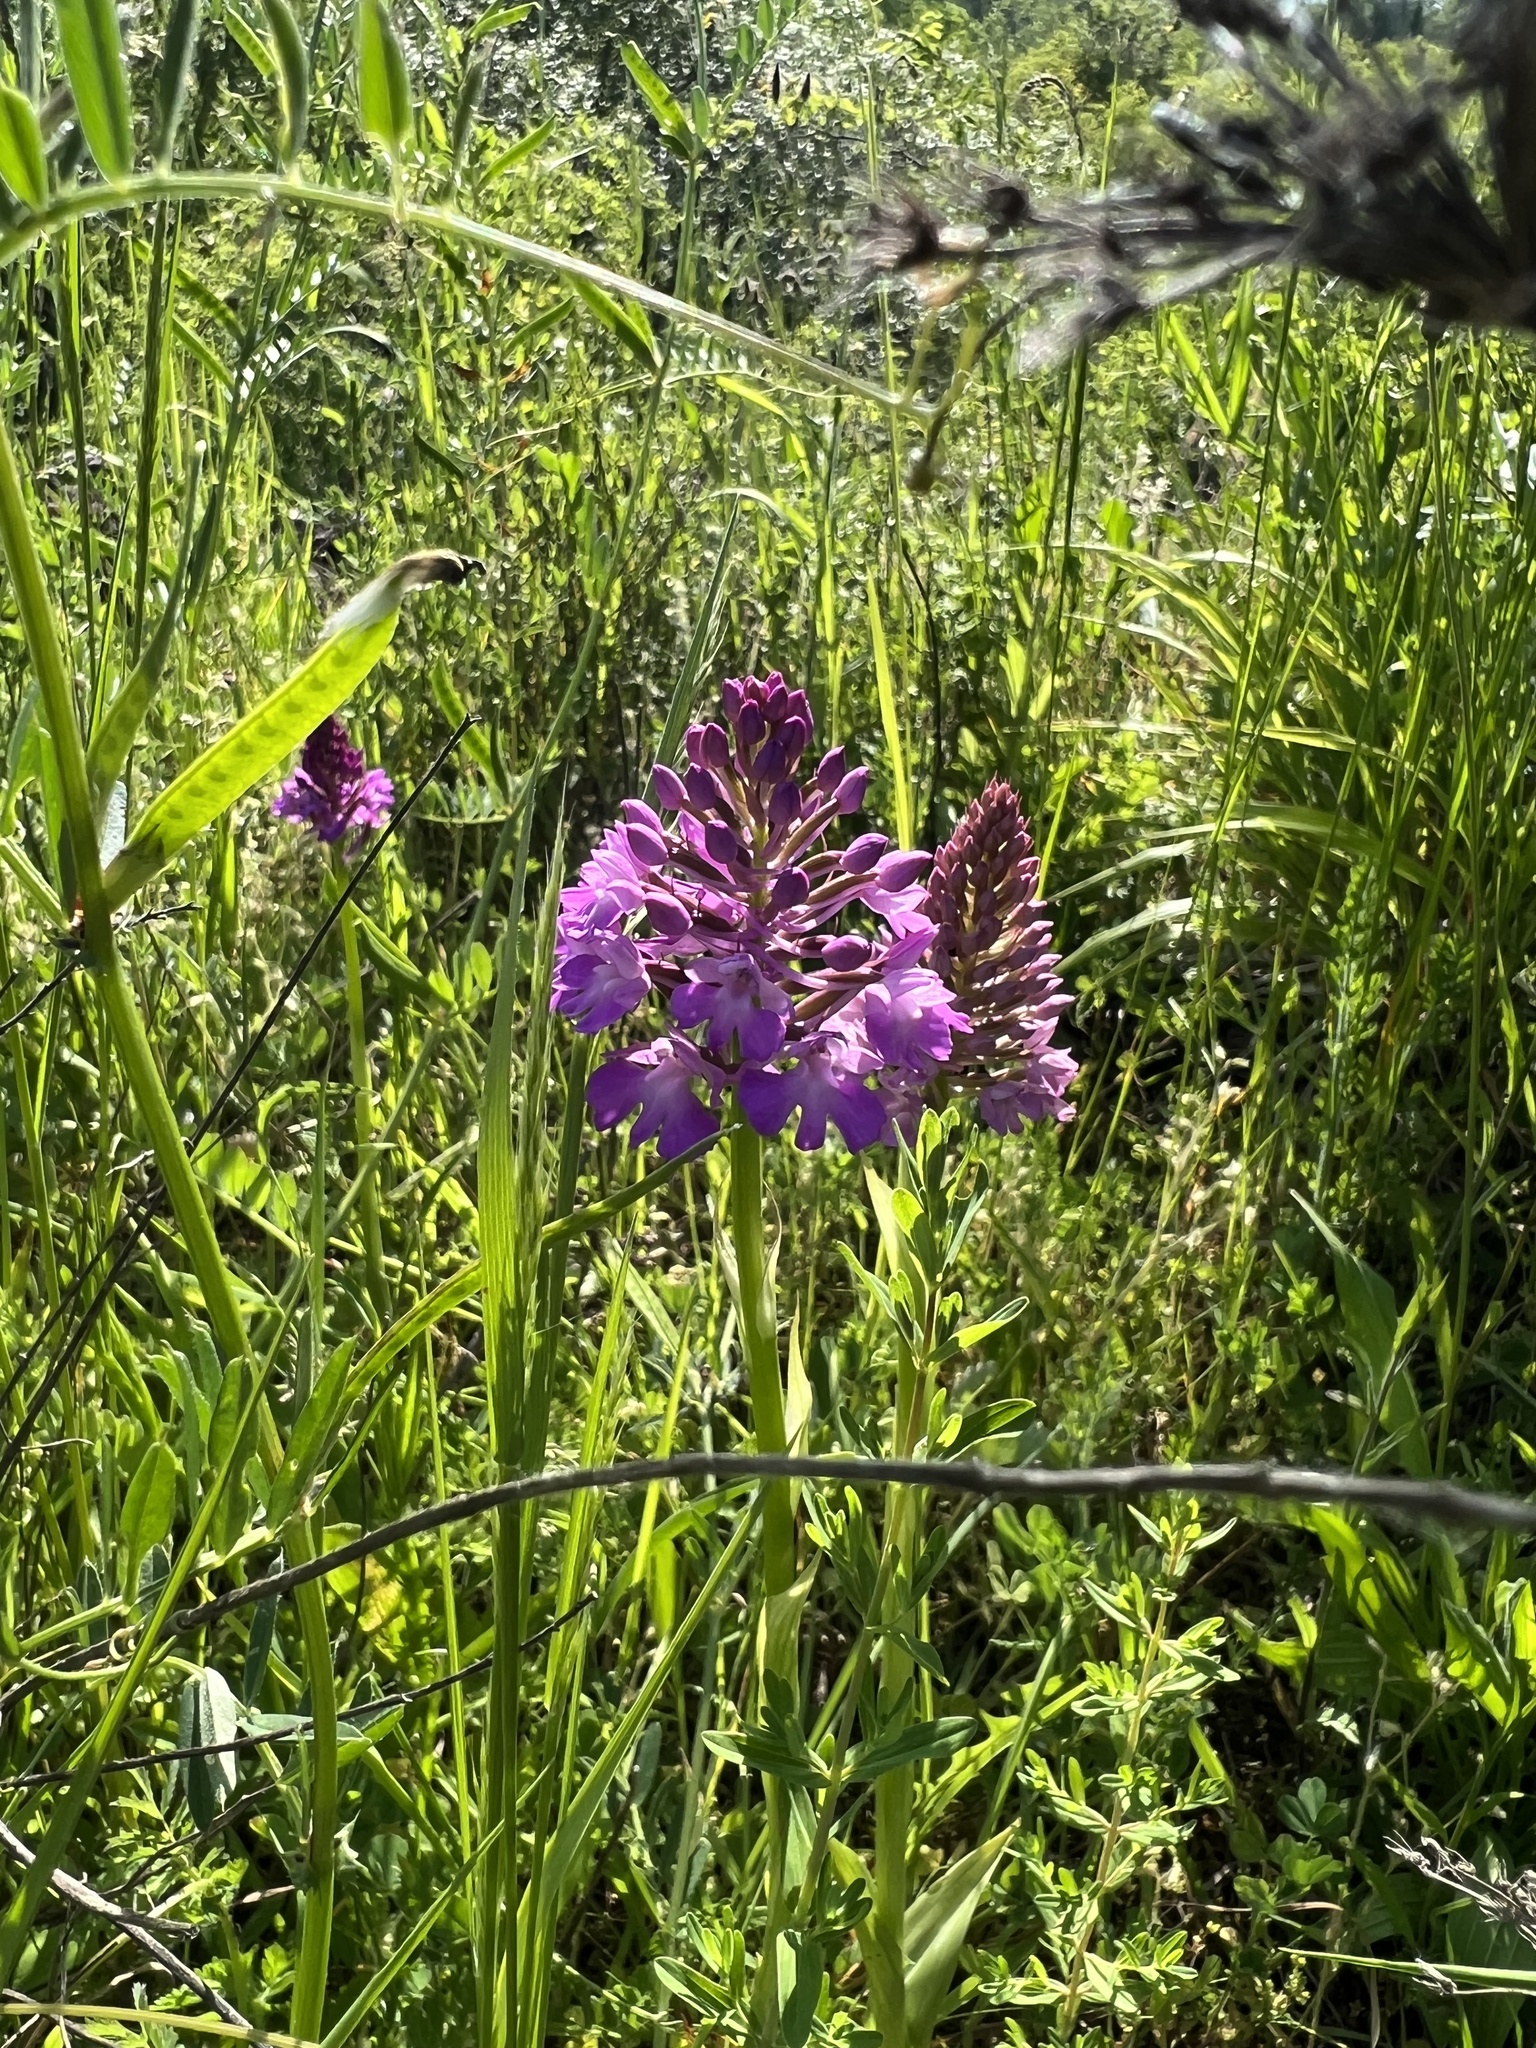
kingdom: Plantae
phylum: Tracheophyta
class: Liliopsida
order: Asparagales
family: Orchidaceae
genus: Anacamptis
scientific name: Anacamptis pyramidalis
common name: Pyramidal orchid
